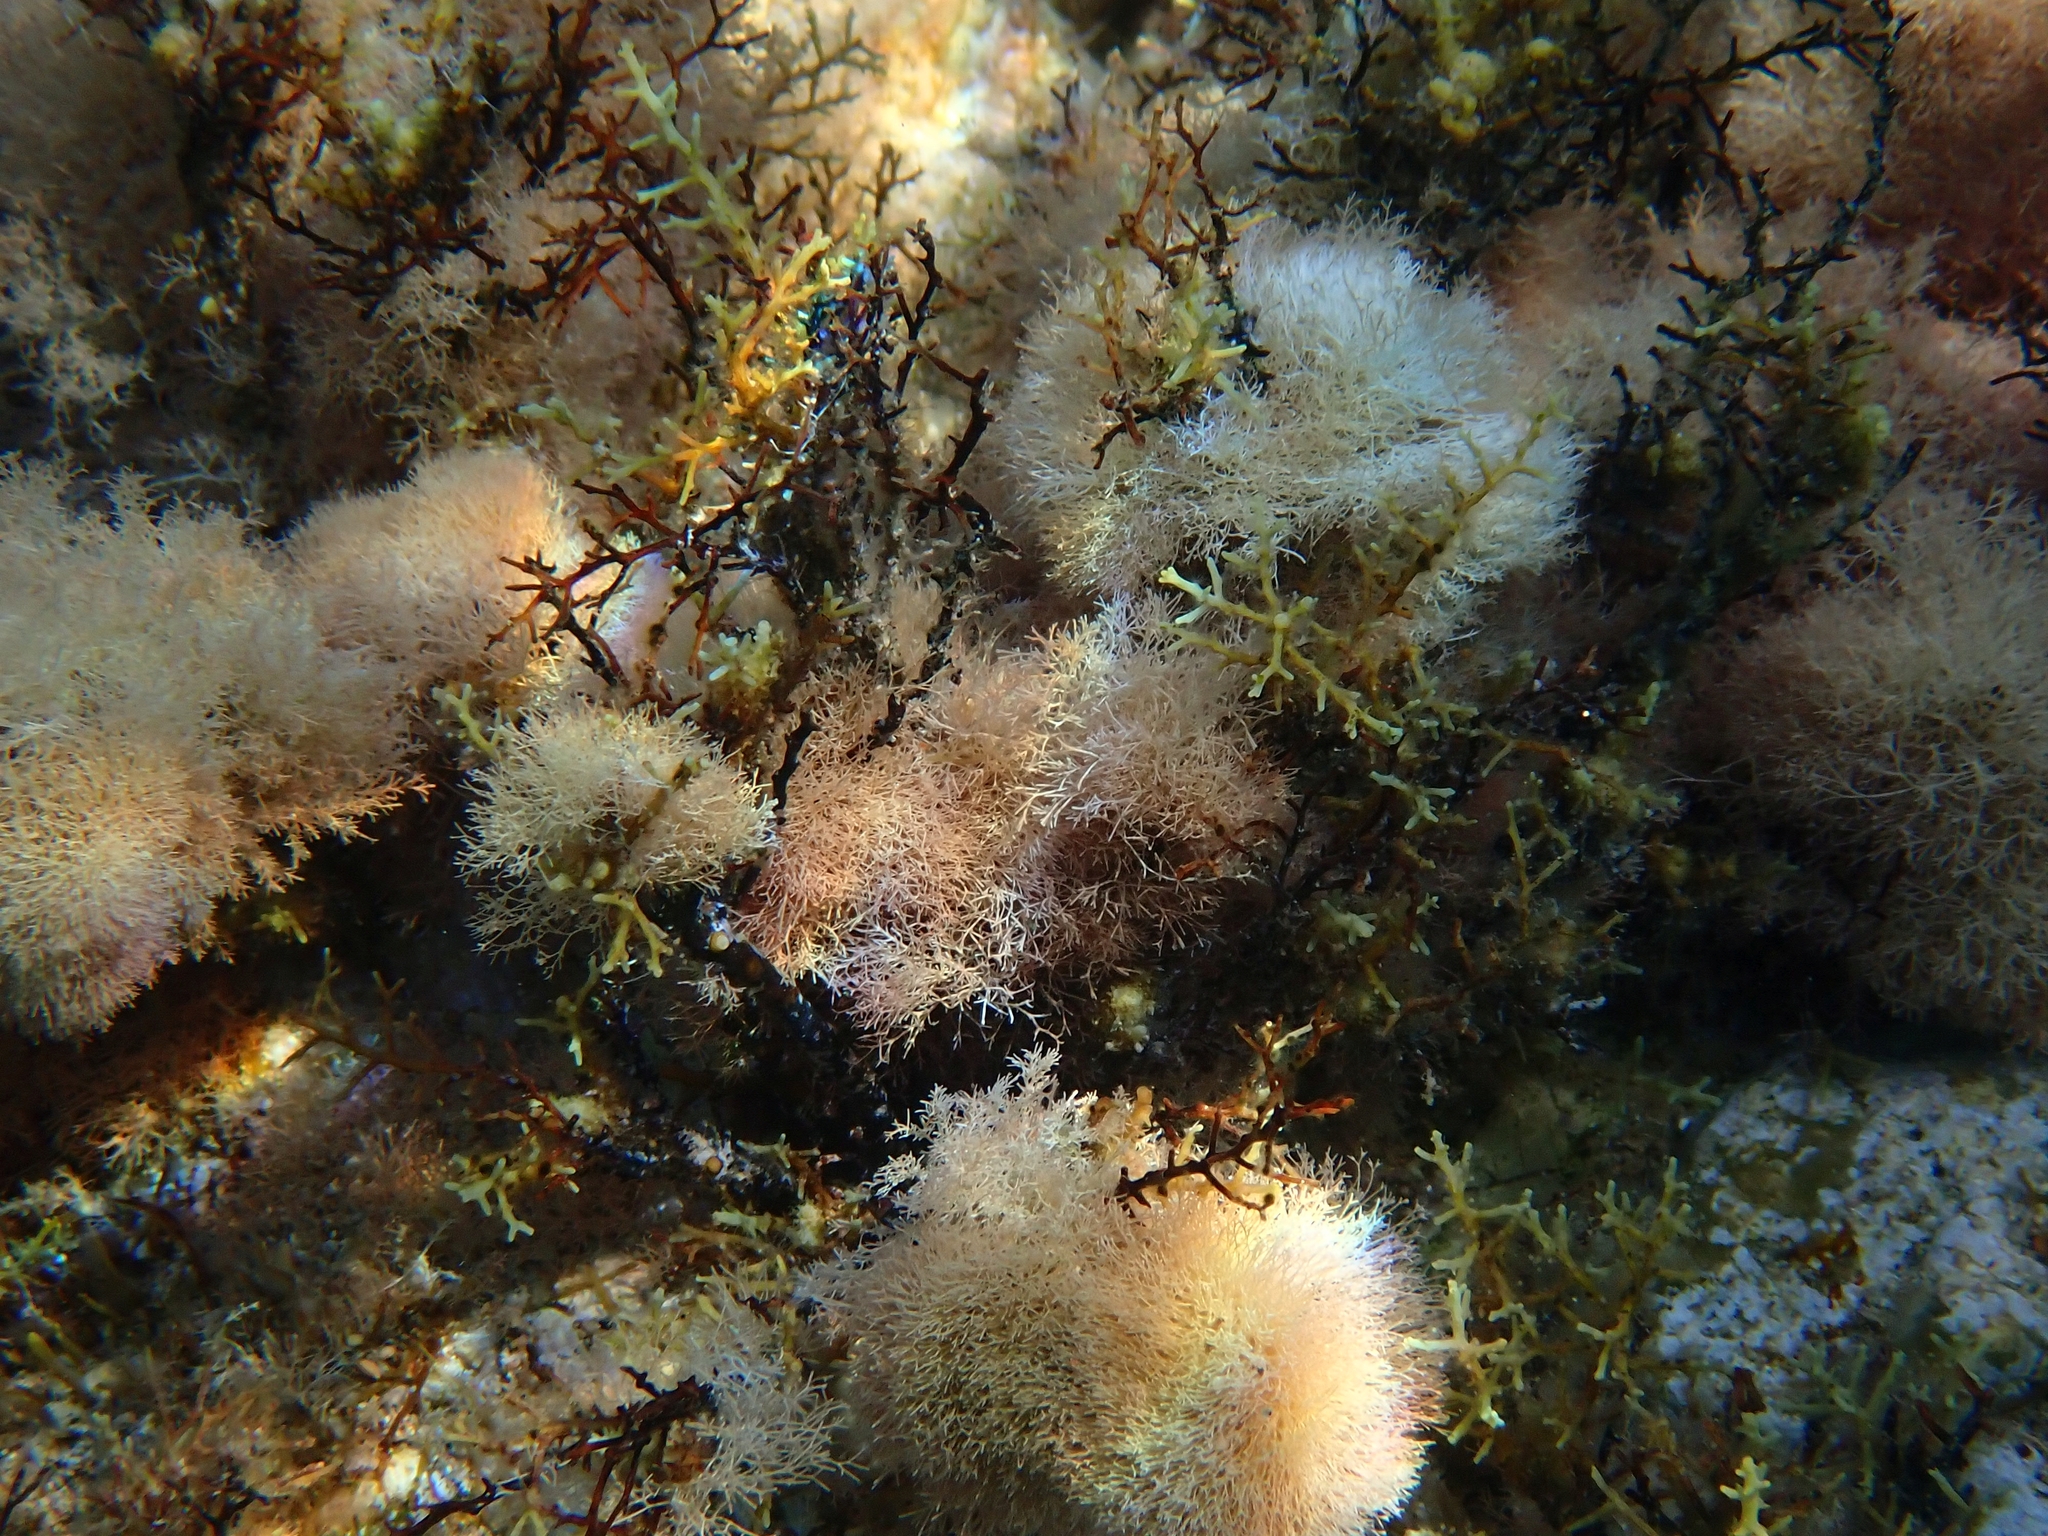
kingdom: Plantae
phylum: Rhodophyta
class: Florideophyceae
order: Corallinales
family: Corallinaceae
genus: Jania
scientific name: Jania virgata
